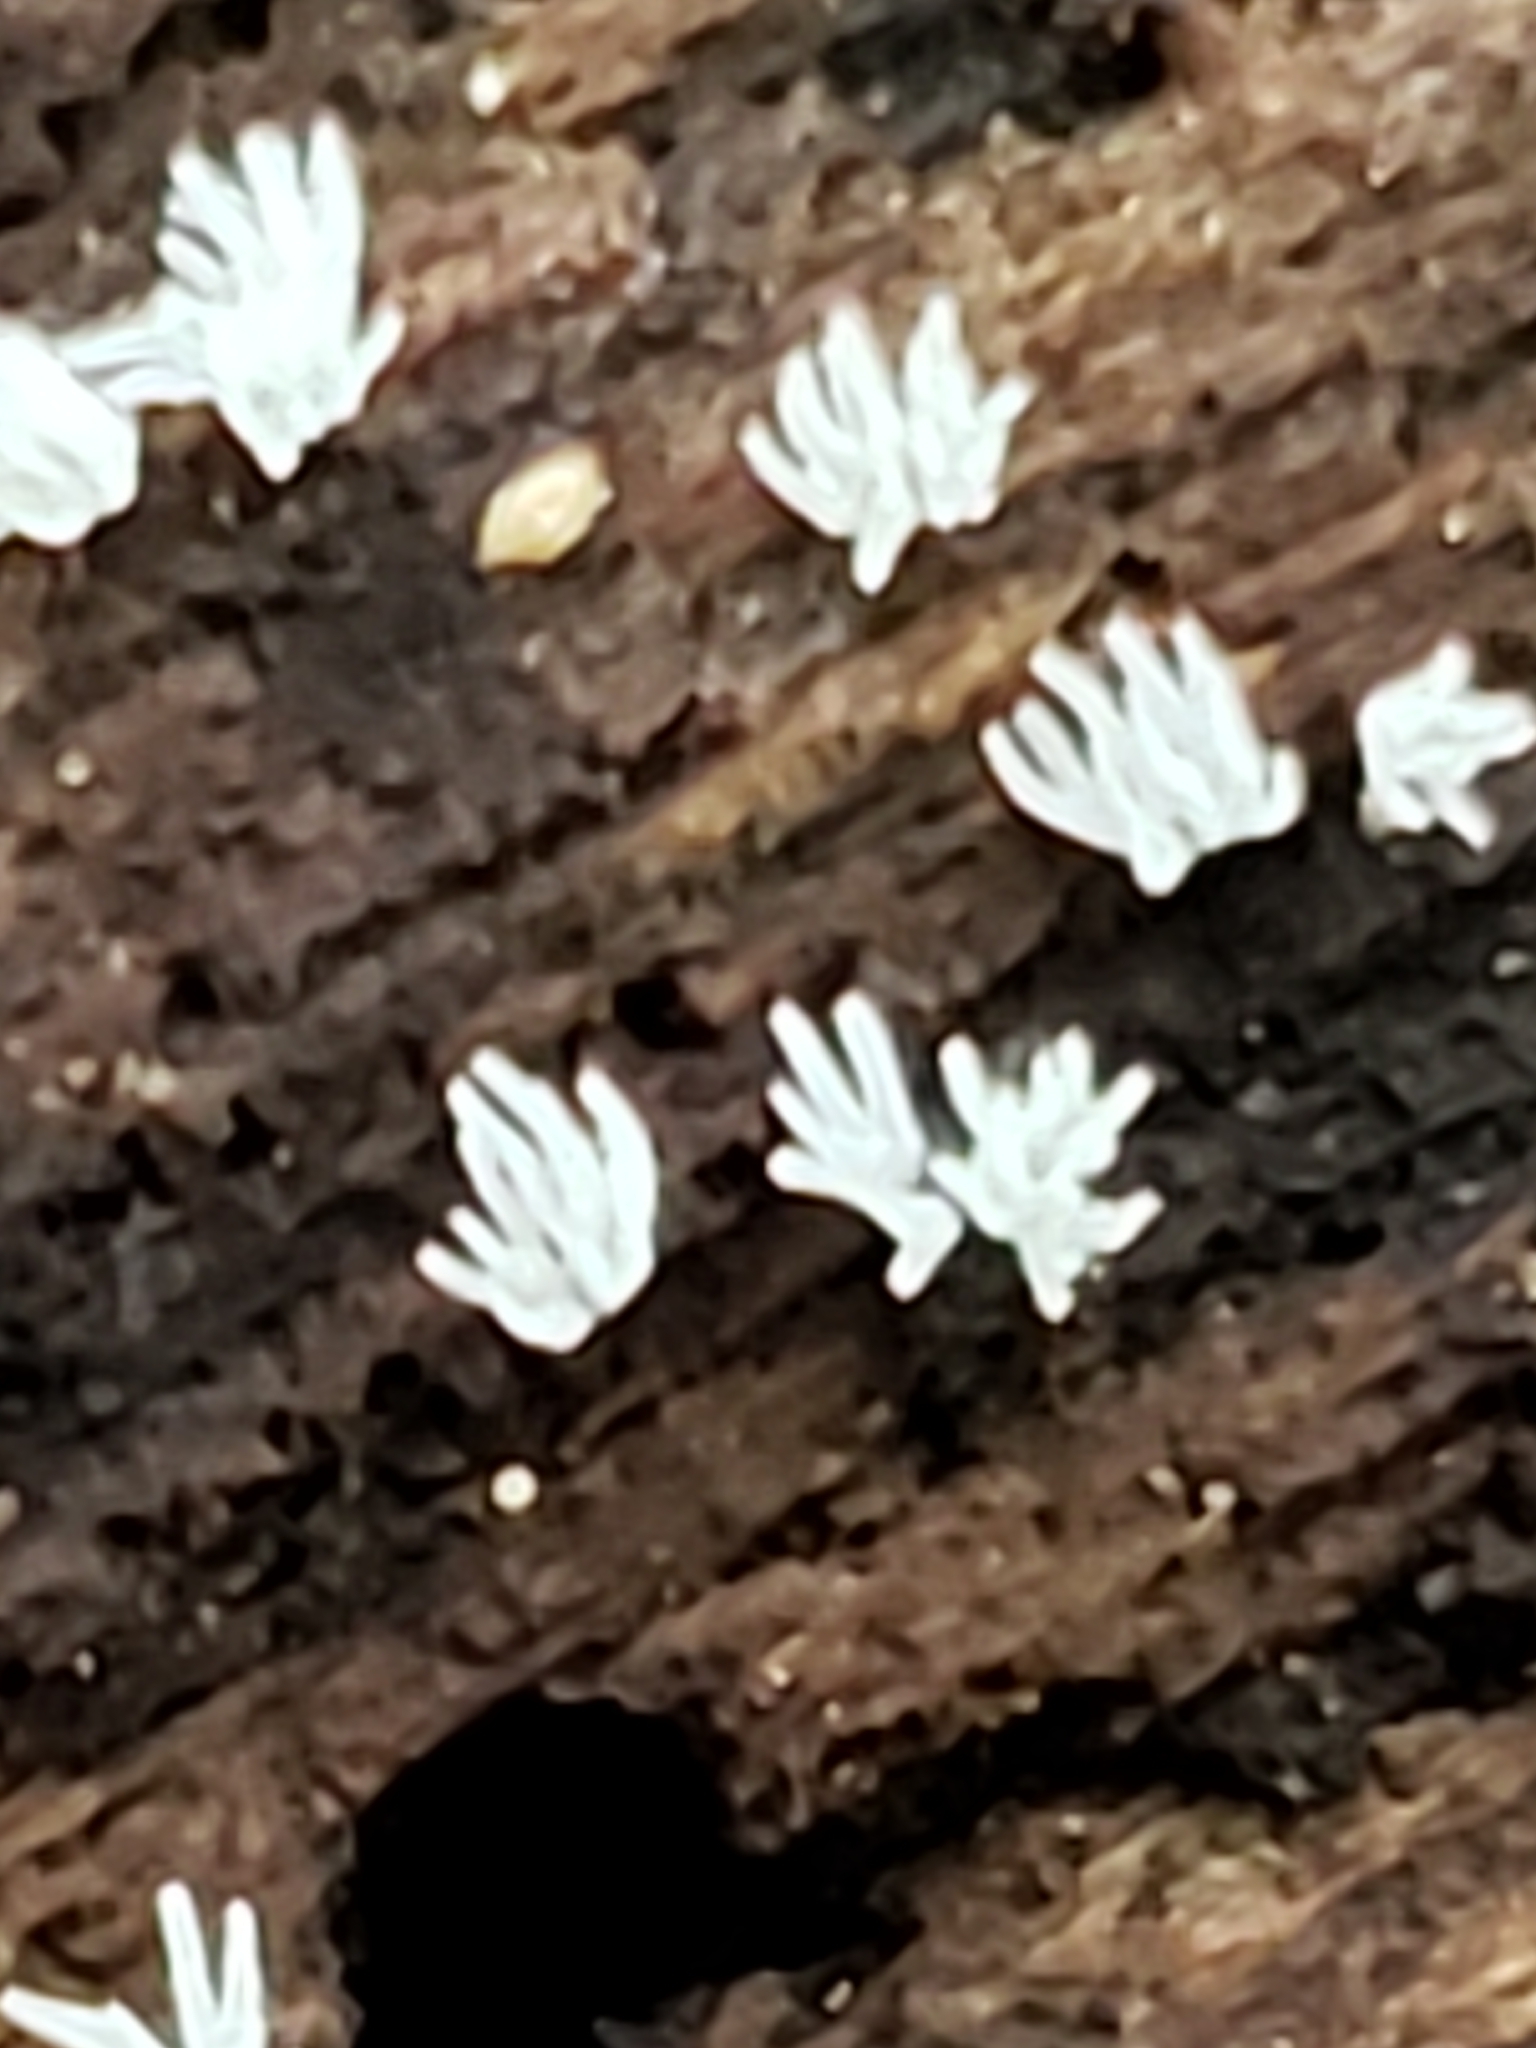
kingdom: Protozoa
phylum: Mycetozoa
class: Protosteliomycetes
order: Ceratiomyxales
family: Ceratiomyxaceae
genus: Ceratiomyxa
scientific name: Ceratiomyxa fruticulosa
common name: Honeycomb coral slime mold
